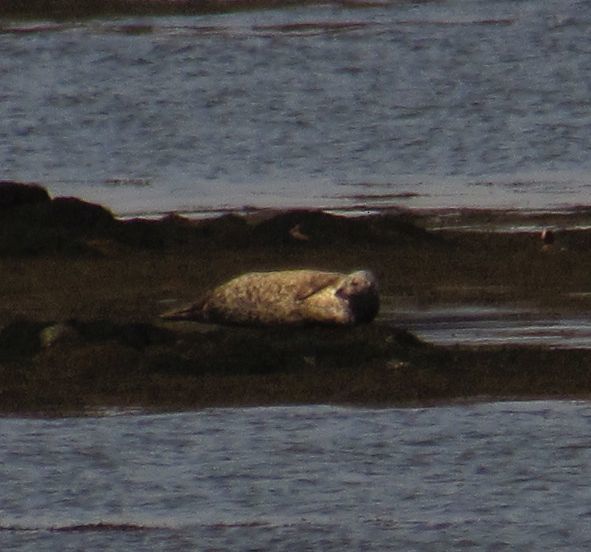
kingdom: Animalia
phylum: Chordata
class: Mammalia
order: Carnivora
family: Phocidae
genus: Phoca
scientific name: Phoca vitulina
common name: Harbor seal
